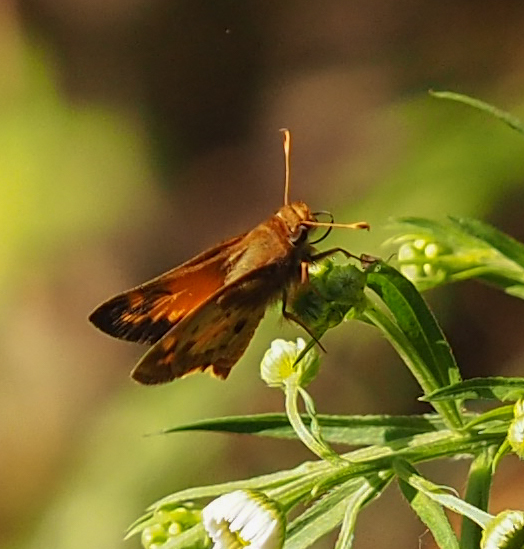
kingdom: Animalia
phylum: Arthropoda
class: Insecta
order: Lepidoptera
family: Hesperiidae
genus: Lon
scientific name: Lon zabulon
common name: Zabulon skipper
